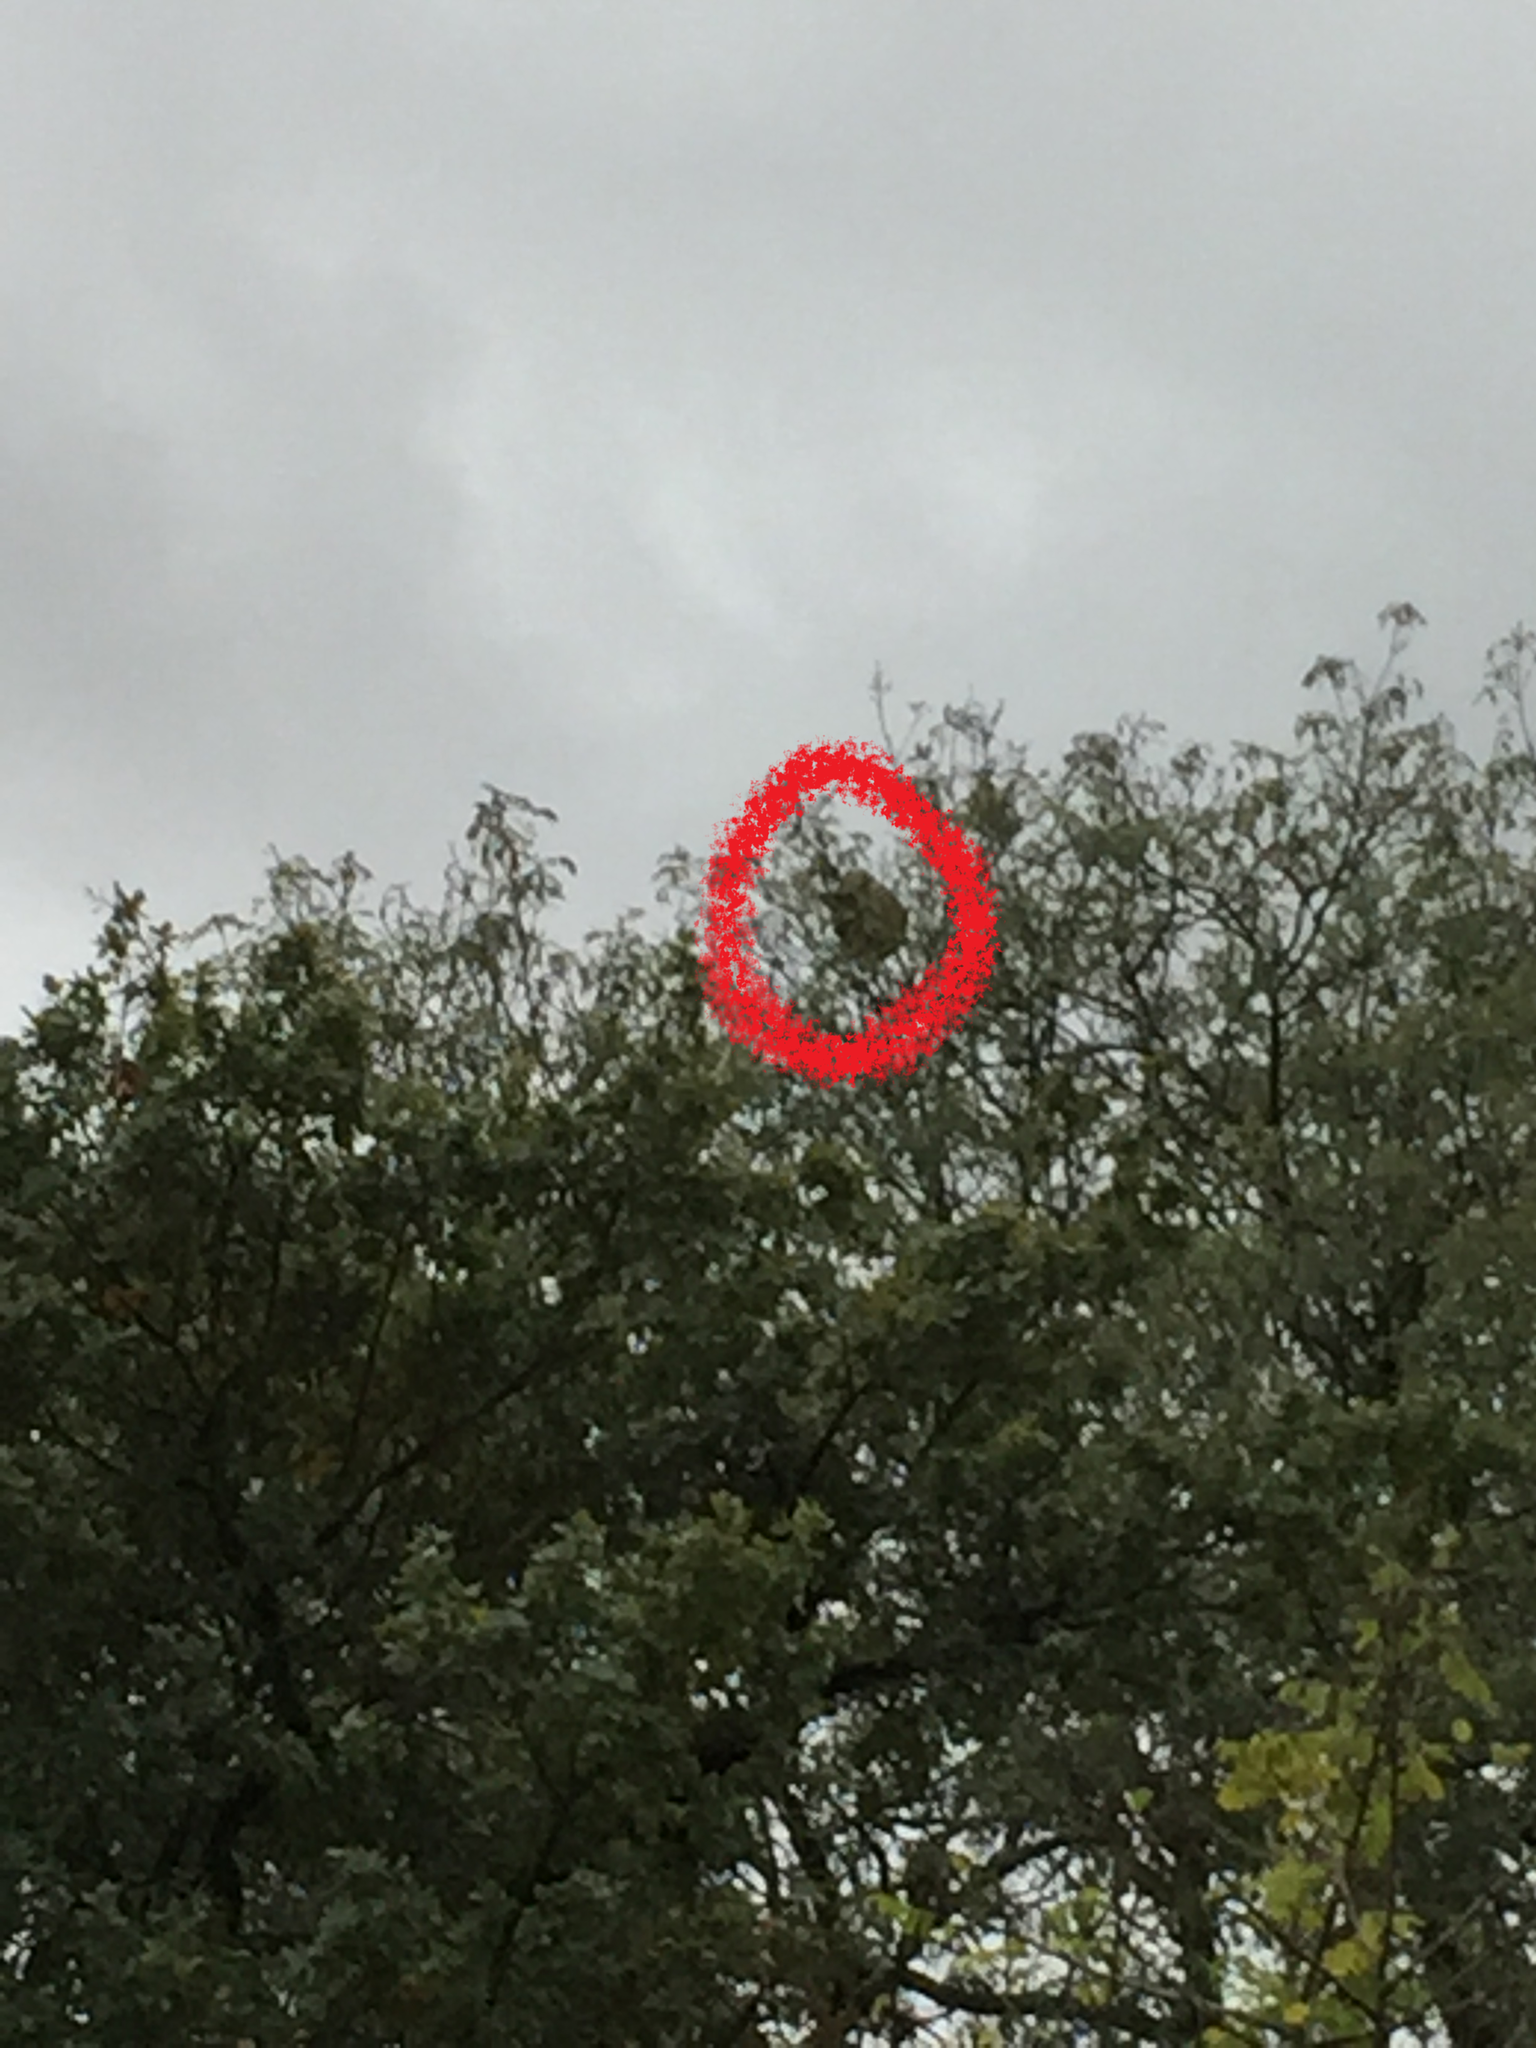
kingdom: Animalia
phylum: Arthropoda
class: Insecta
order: Hymenoptera
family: Vespidae
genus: Vespa
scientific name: Vespa velutina
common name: Asian hornet
